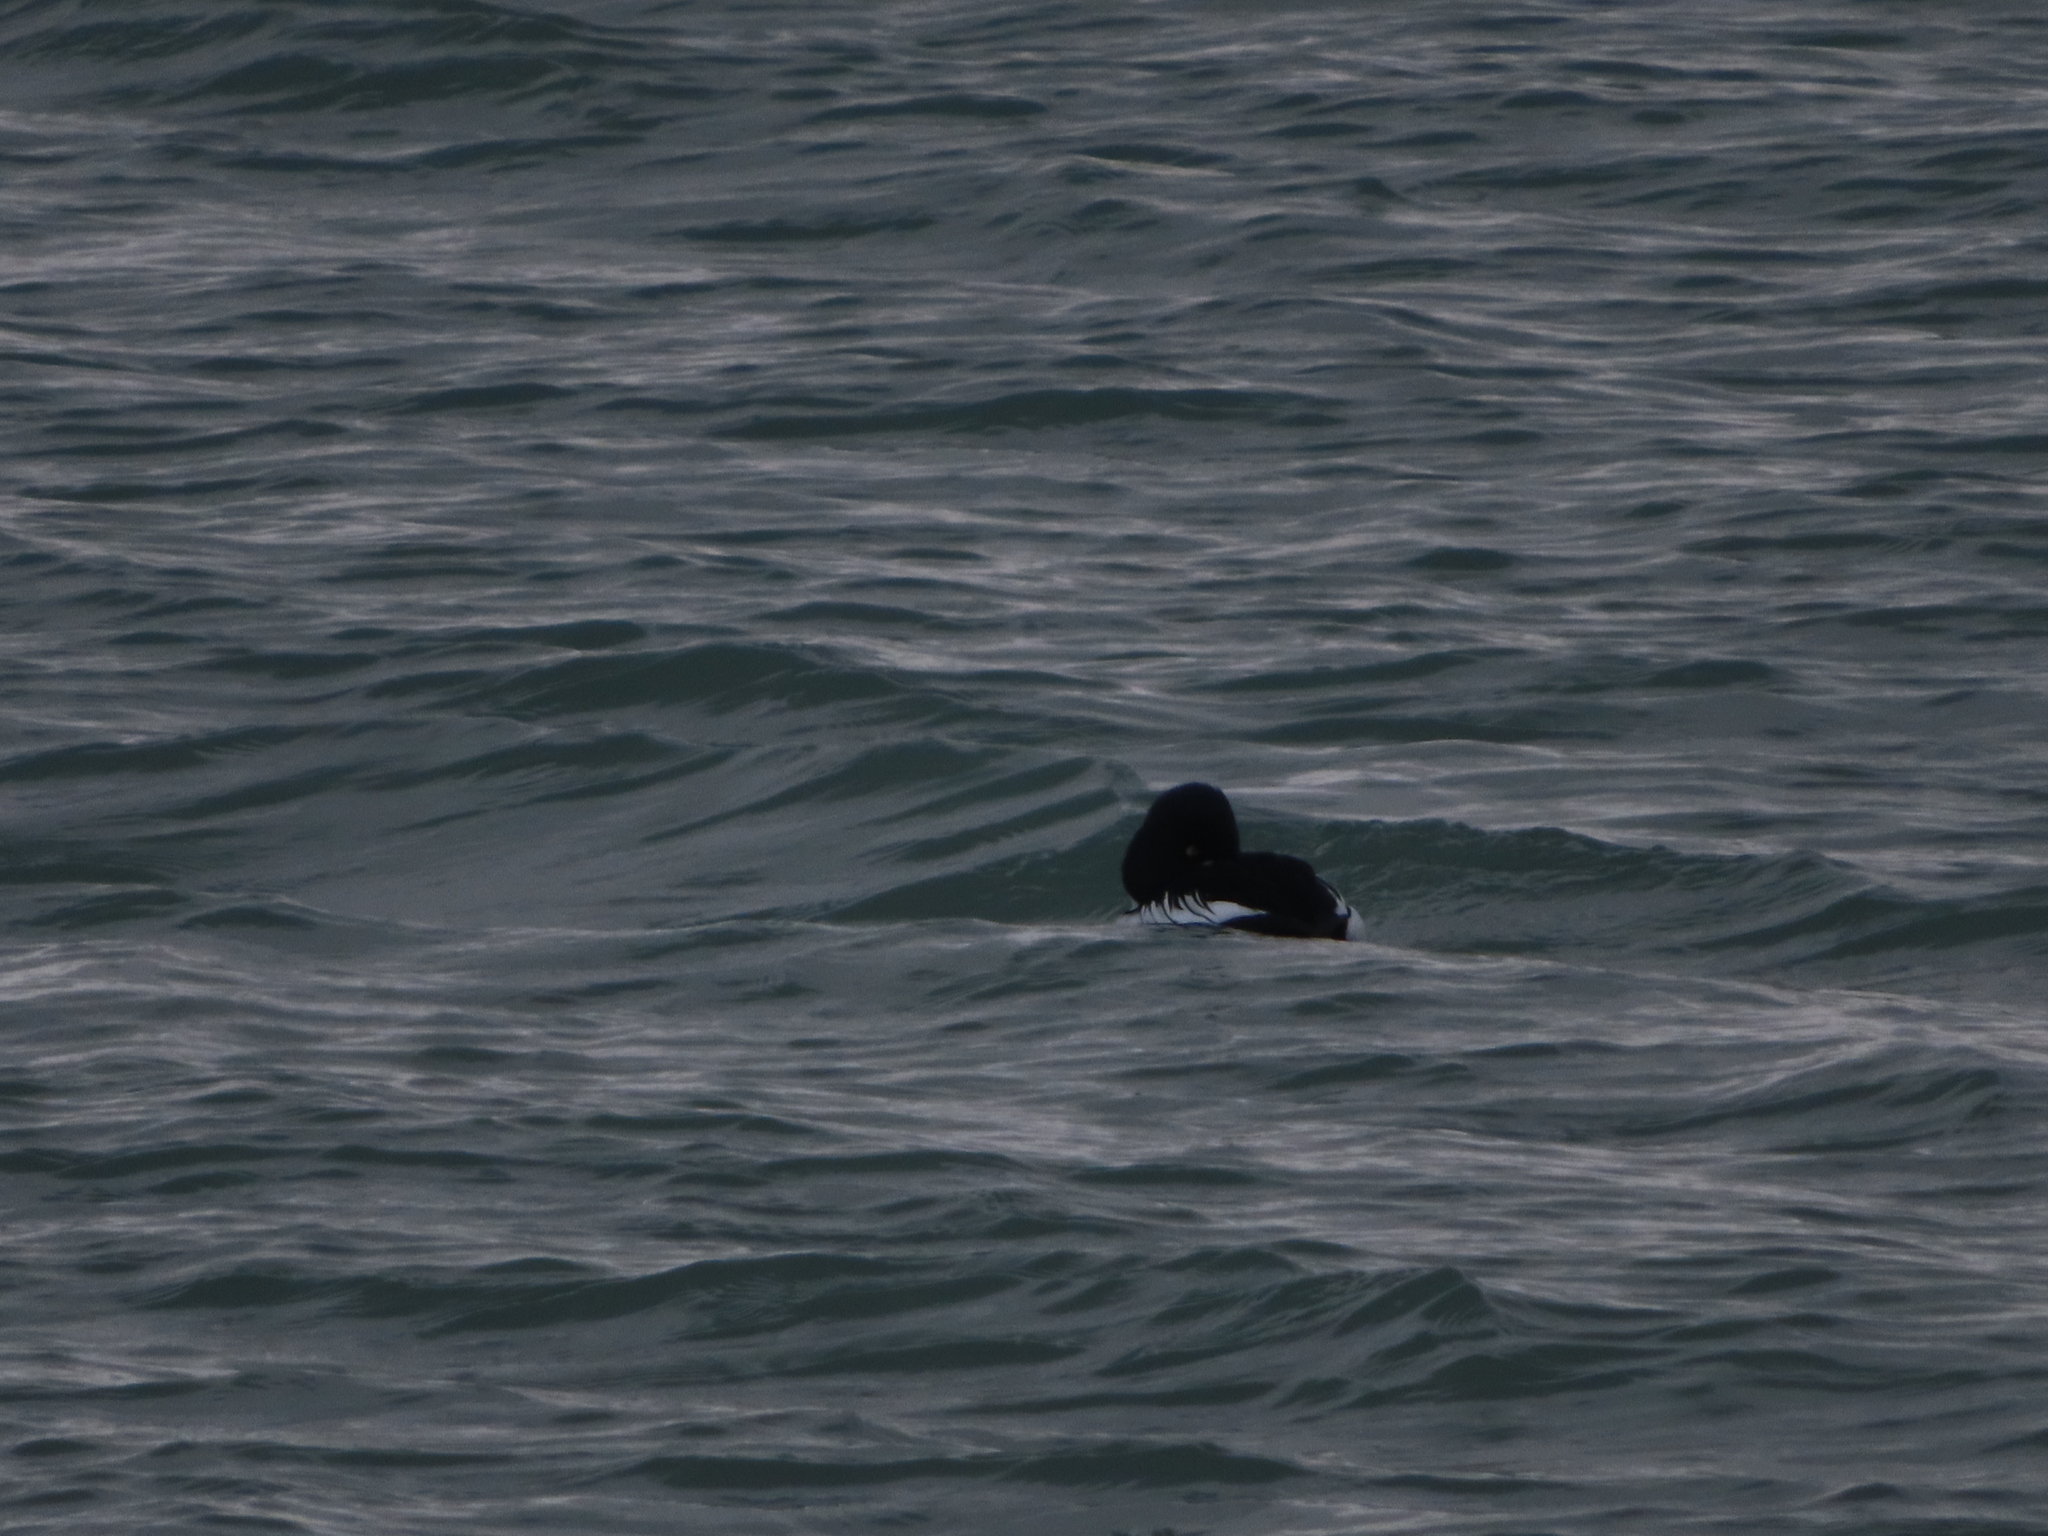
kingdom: Animalia
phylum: Chordata
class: Aves
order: Anseriformes
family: Anatidae
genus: Bucephala
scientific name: Bucephala clangula
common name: Common goldeneye
